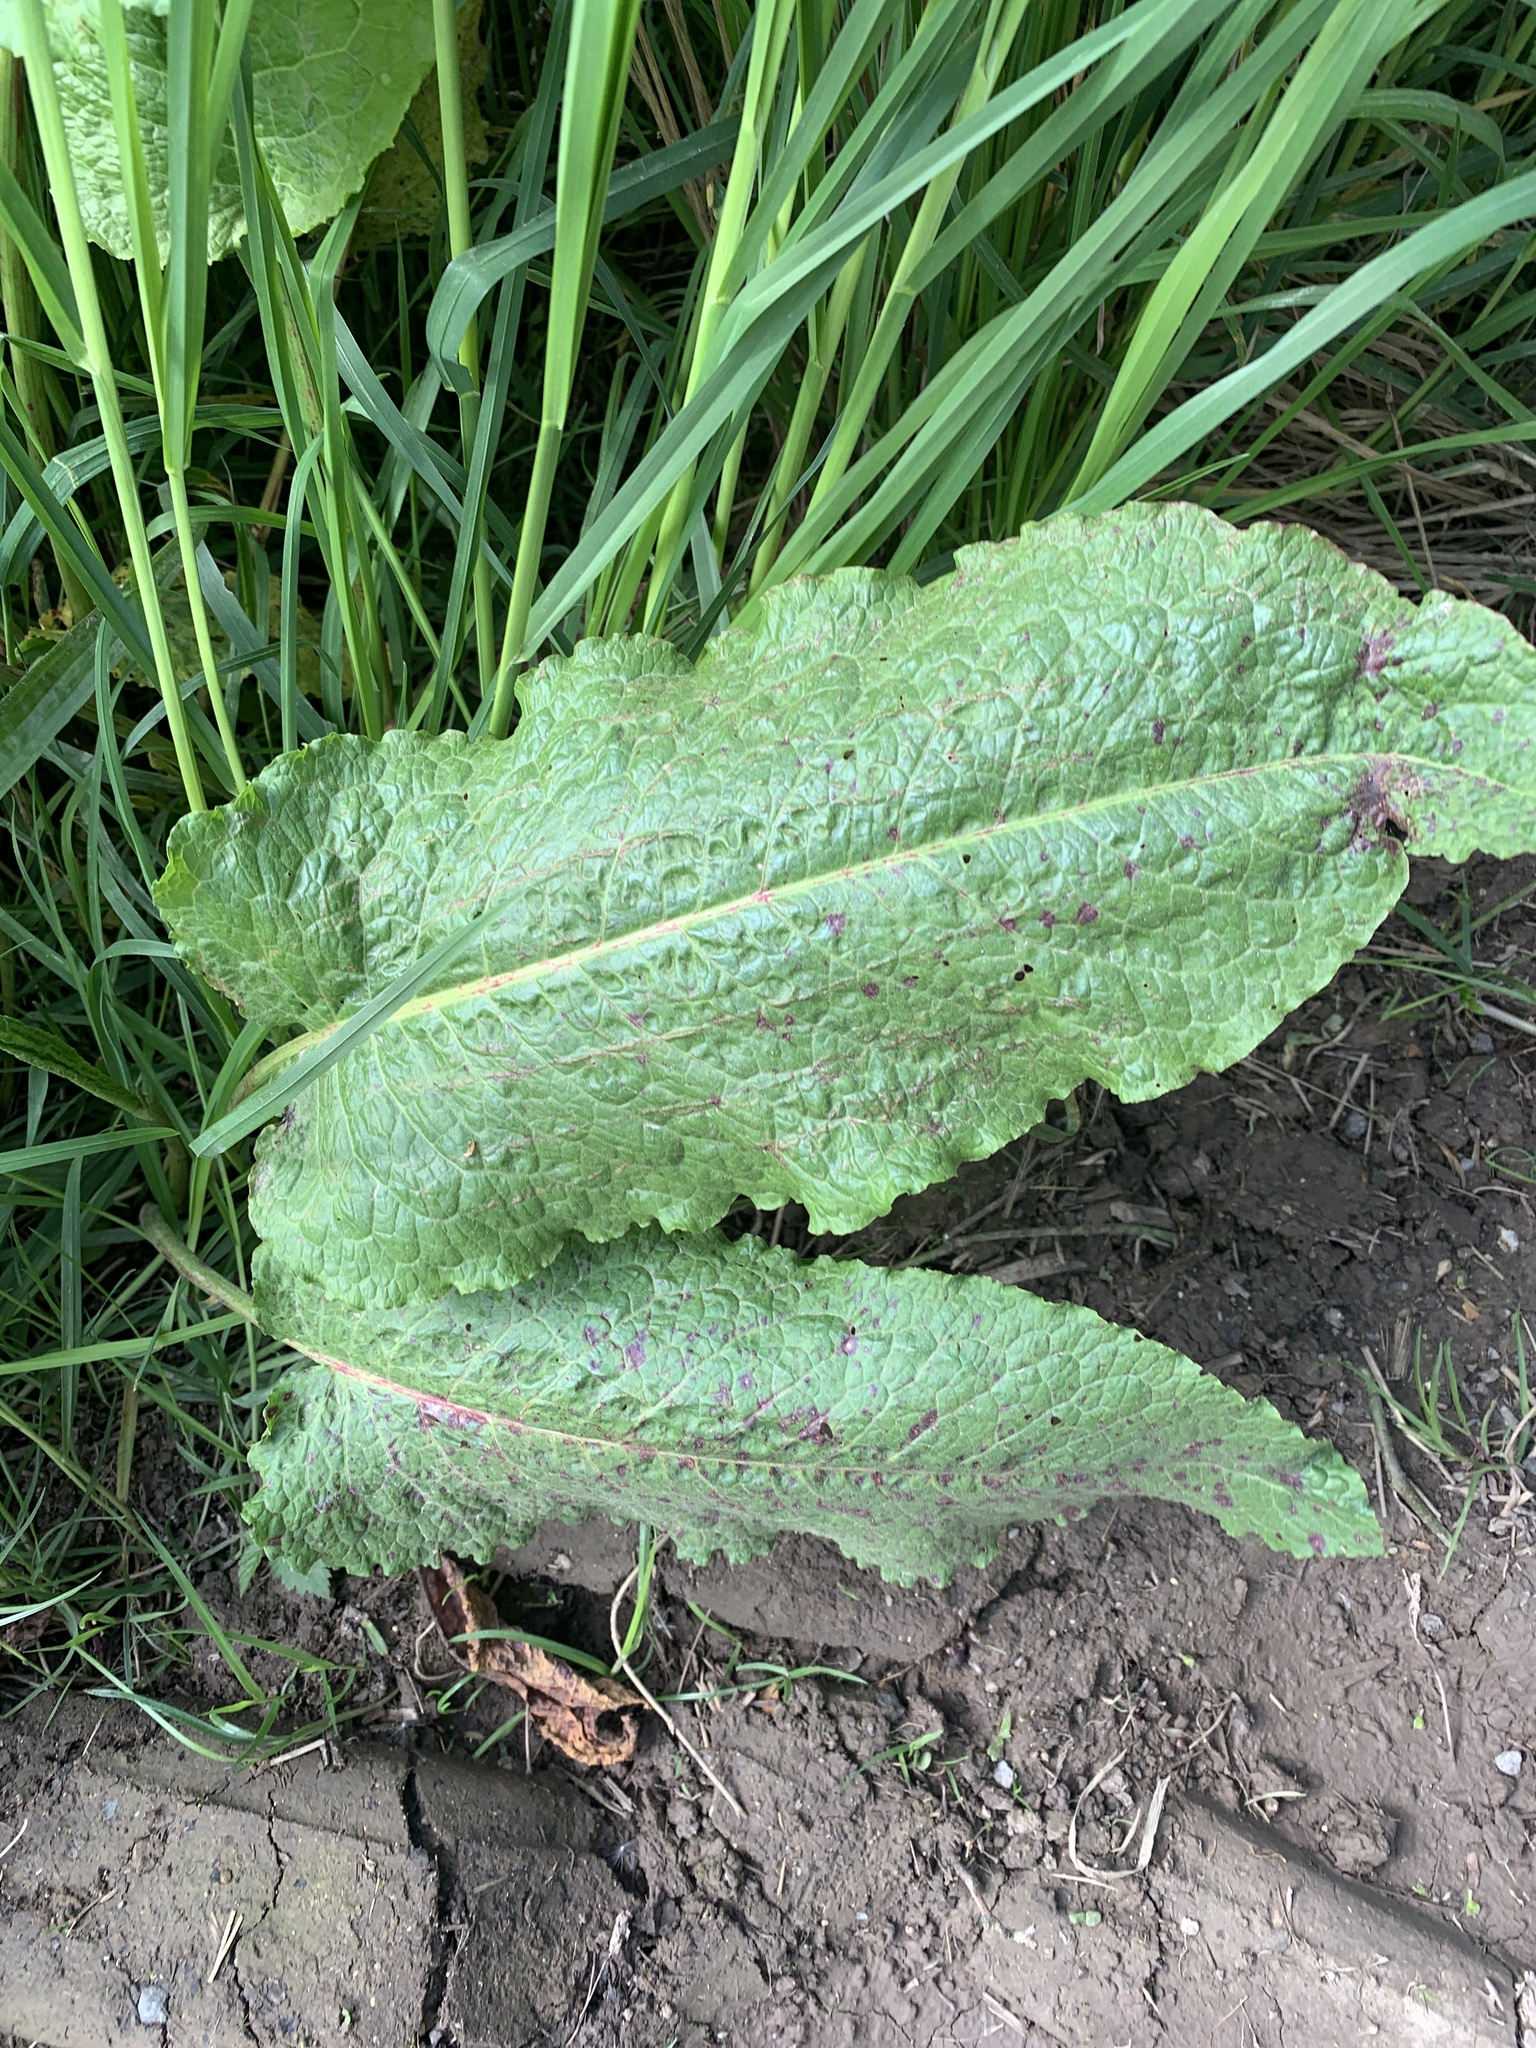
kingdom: Plantae
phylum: Tracheophyta
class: Magnoliopsida
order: Caryophyllales
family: Polygonaceae
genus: Rumex
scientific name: Rumex obtusifolius
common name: Bitter dock
